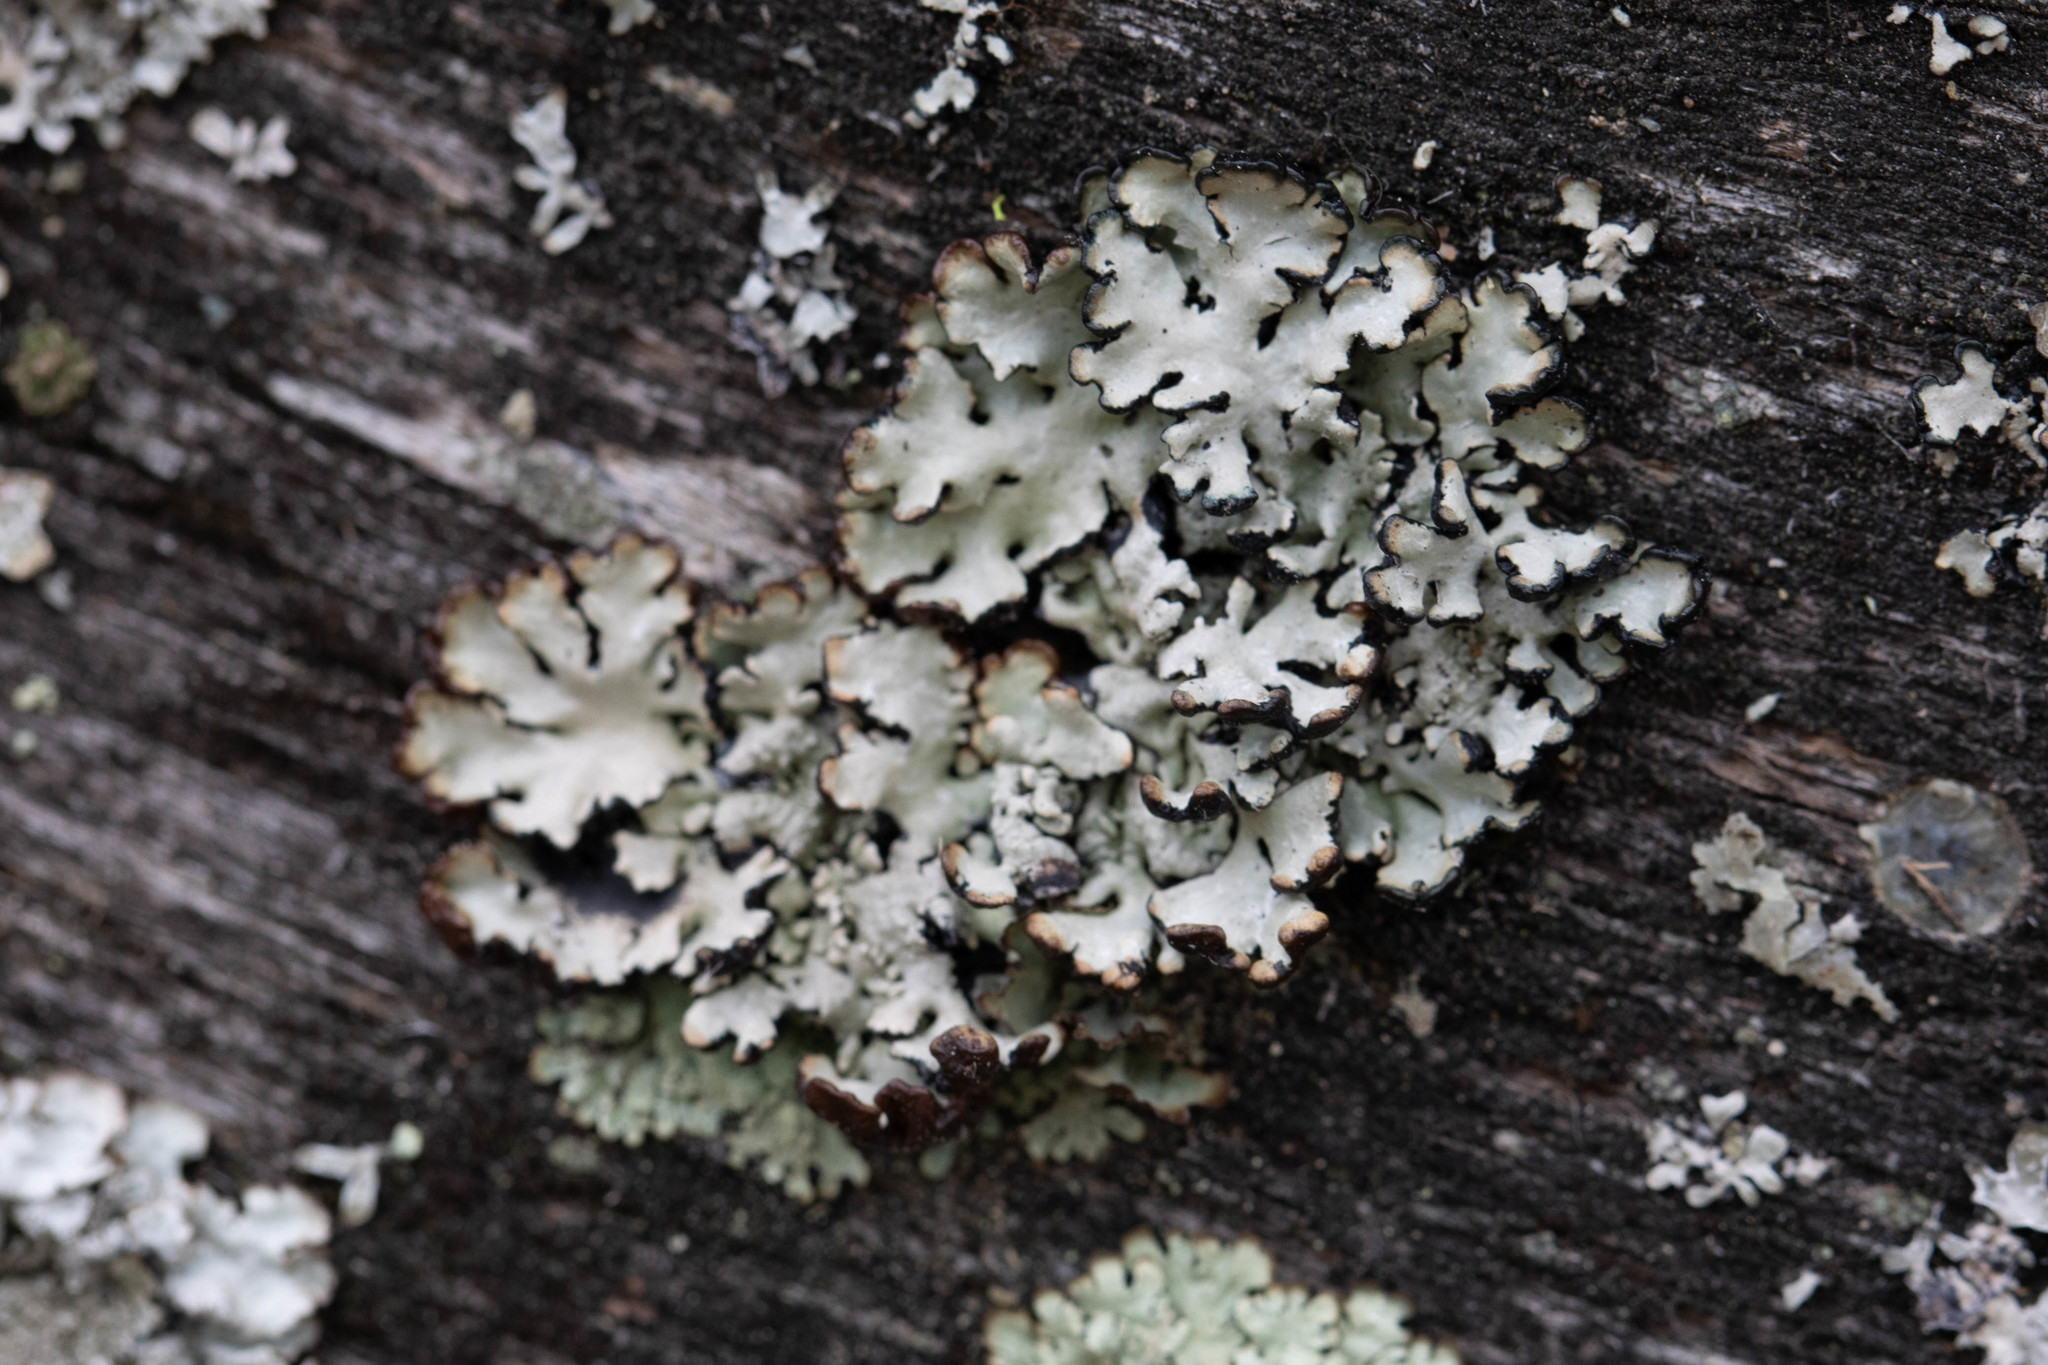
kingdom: Fungi
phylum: Ascomycota
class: Lecanoromycetes
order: Lecanorales
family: Parmeliaceae
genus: Hypogymnia
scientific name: Hypogymnia physodes
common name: Dark crottle
